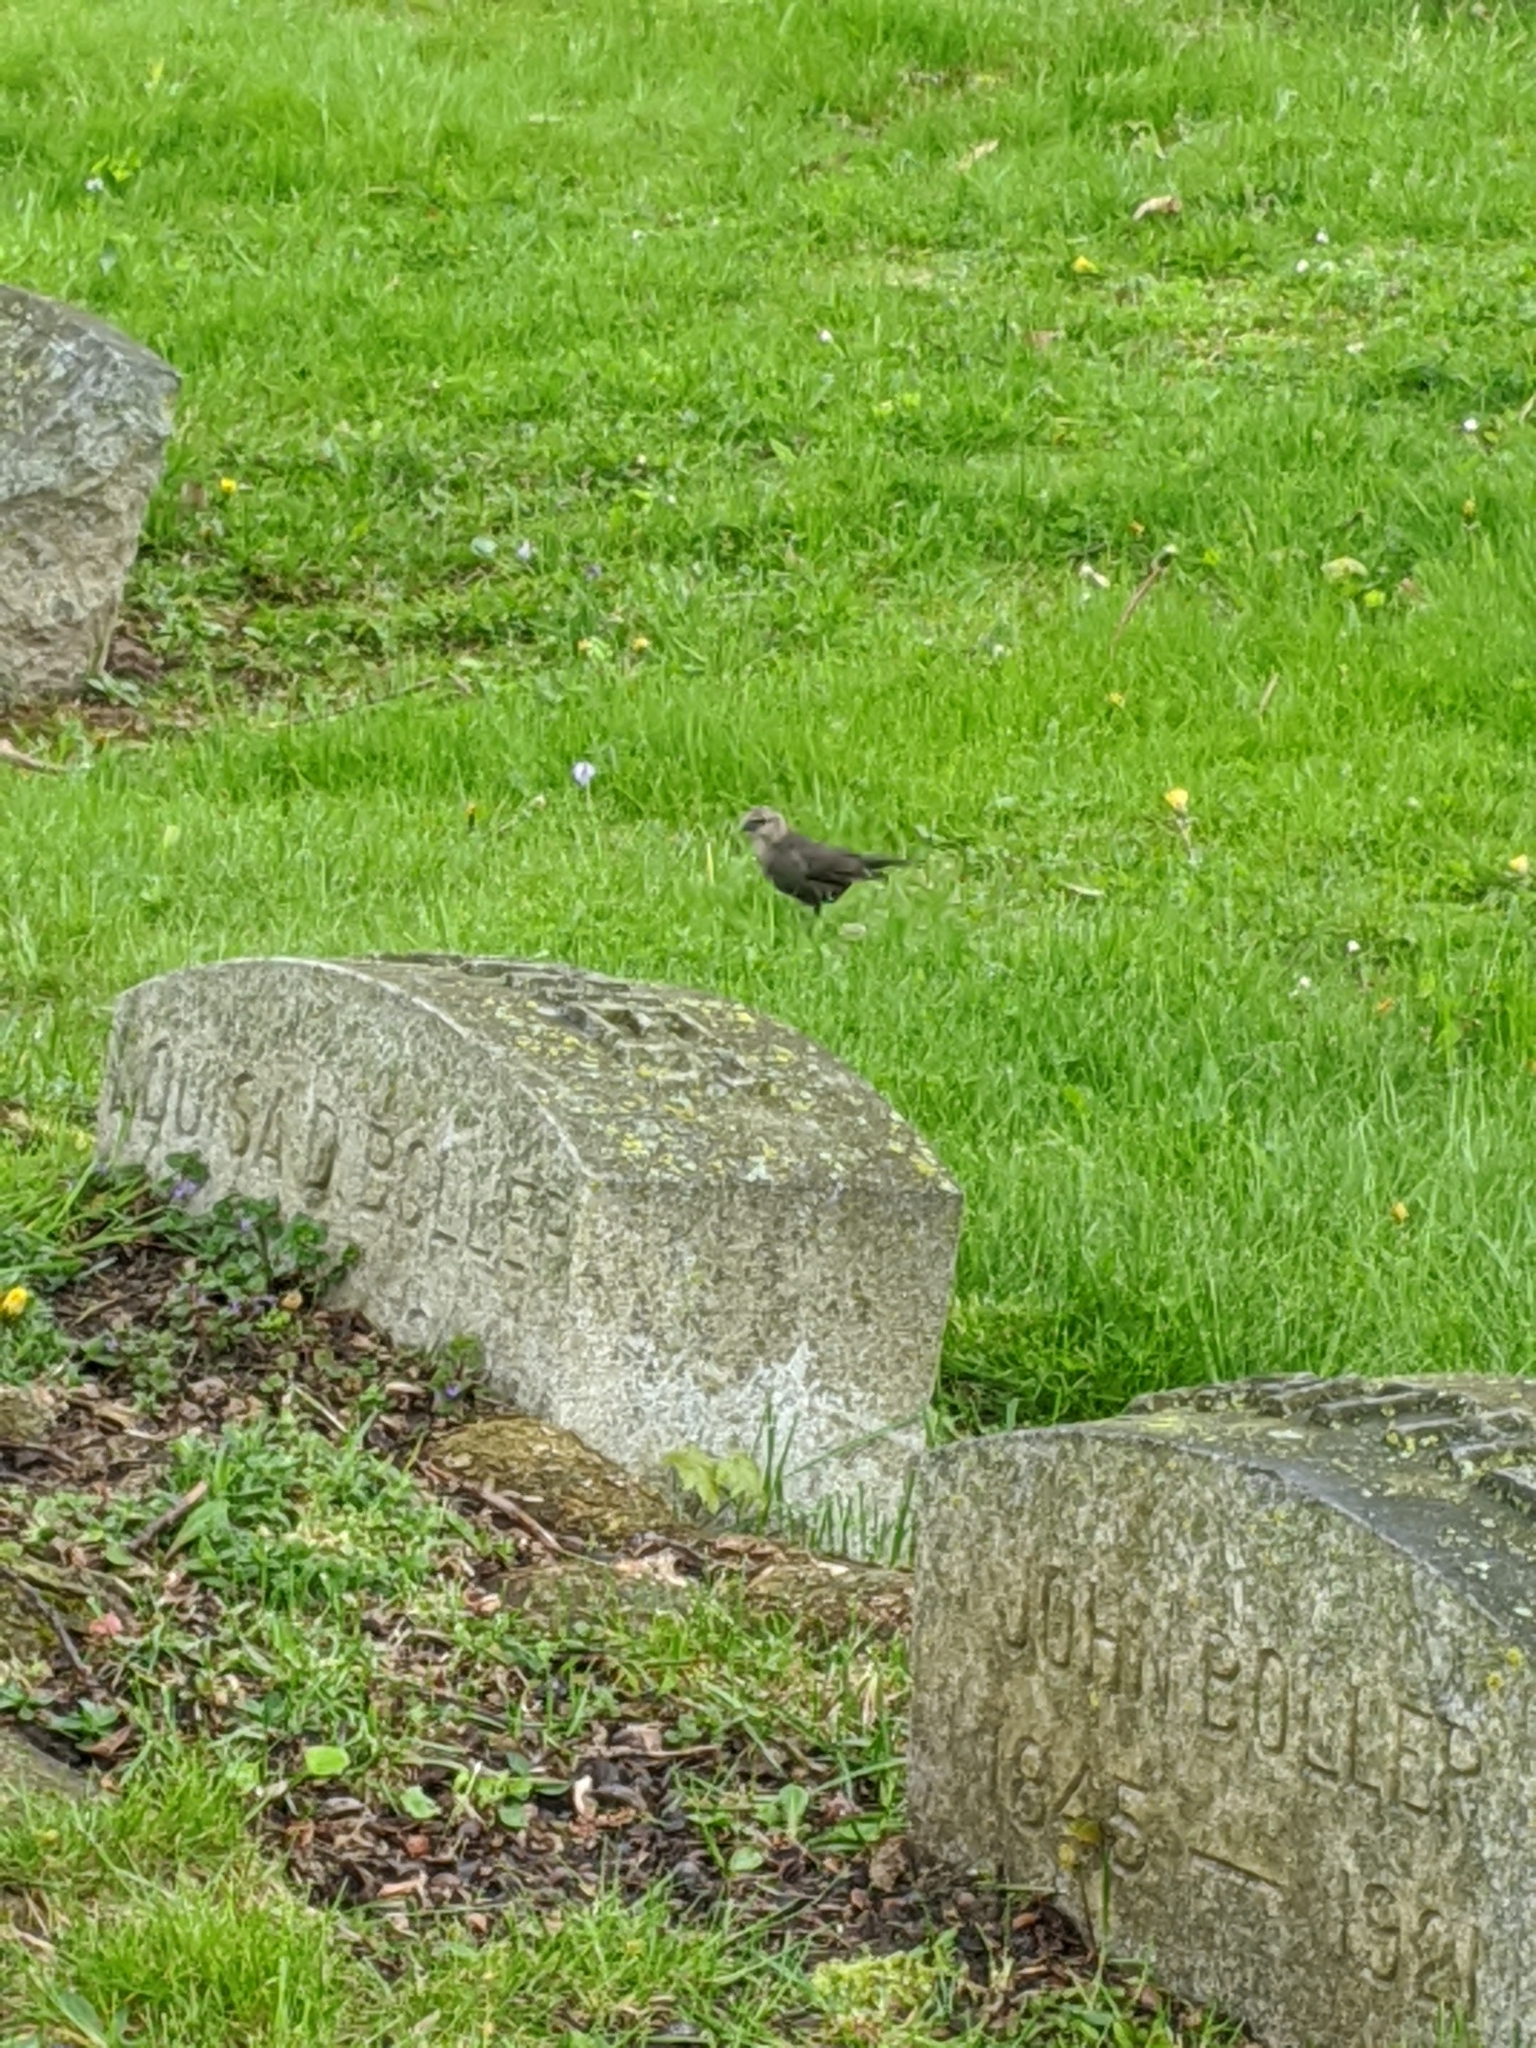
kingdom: Animalia
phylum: Chordata
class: Aves
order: Passeriformes
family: Icteridae
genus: Molothrus
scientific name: Molothrus ater
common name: Brown-headed cowbird
